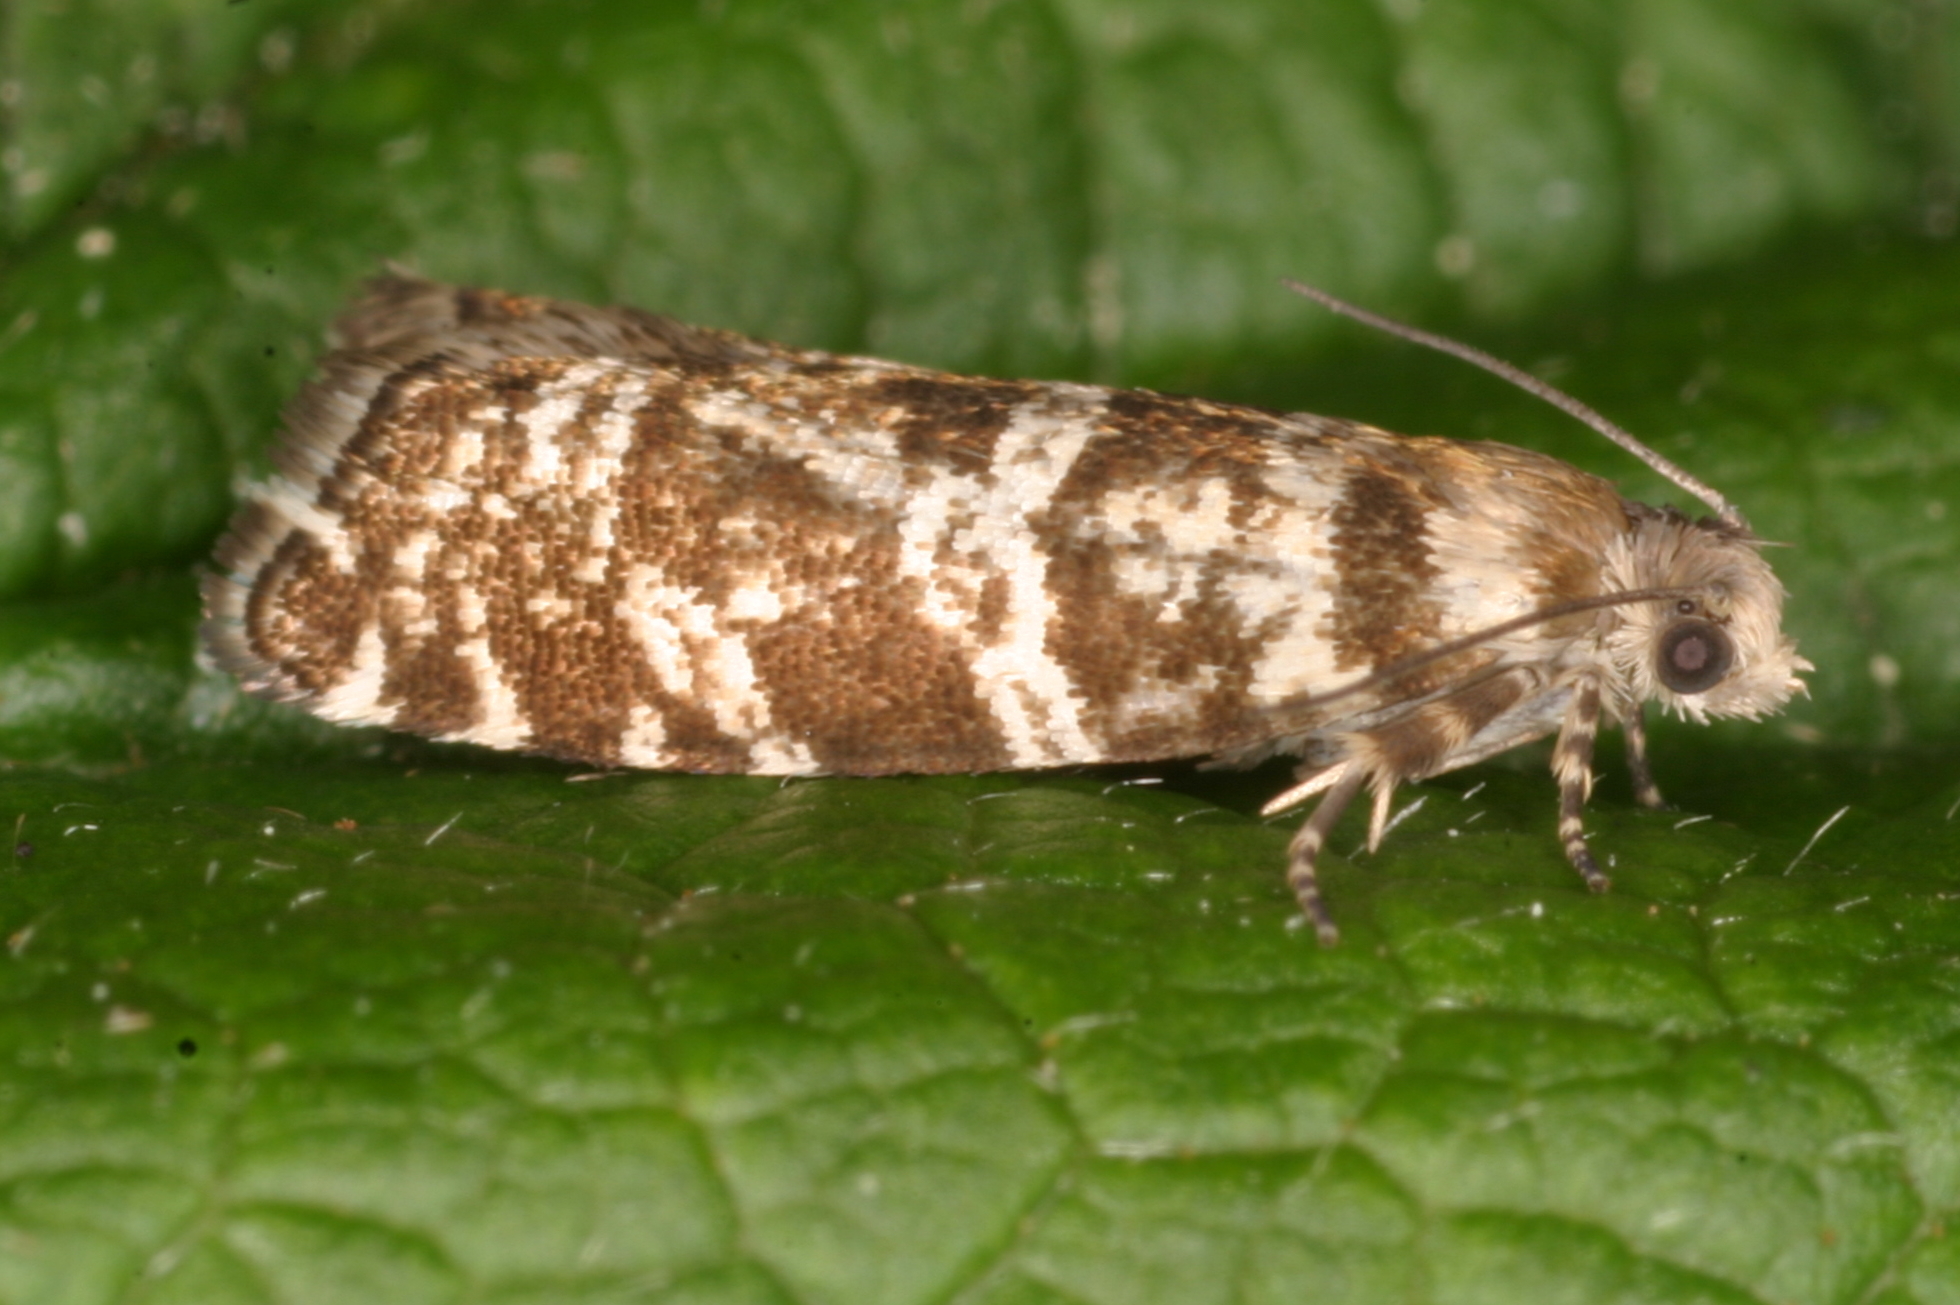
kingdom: Animalia
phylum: Arthropoda
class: Insecta
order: Lepidoptera
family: Tortricidae
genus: Epinotia
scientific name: Epinotia tedella
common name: Common spruce bell
